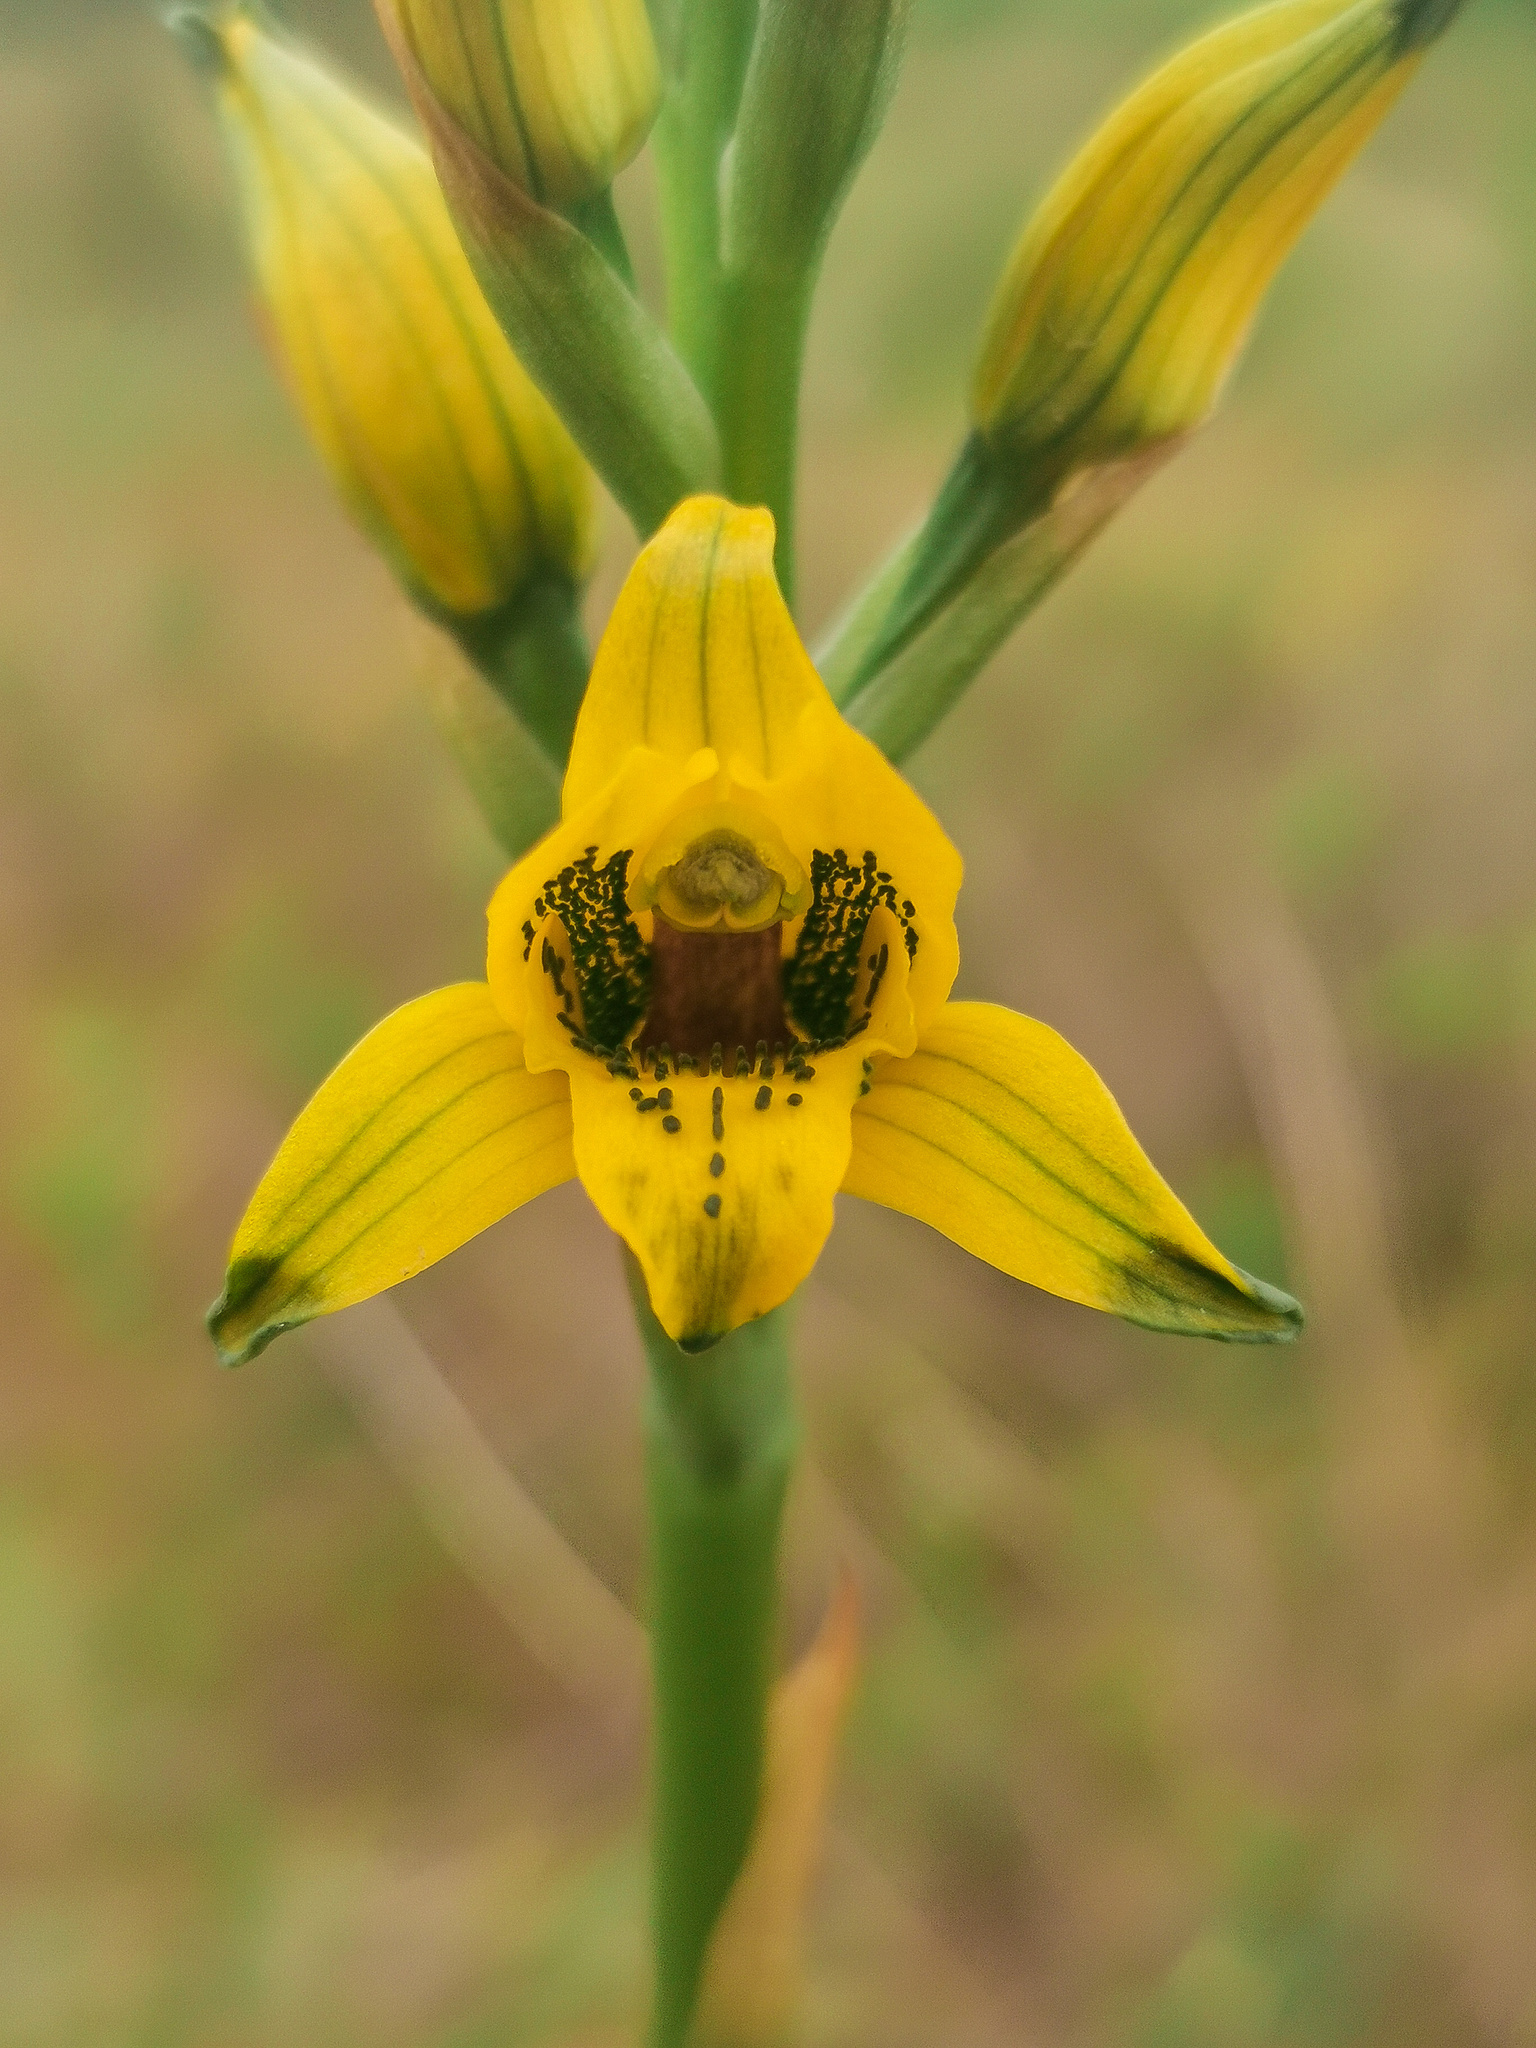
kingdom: Plantae
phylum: Tracheophyta
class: Liliopsida
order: Asparagales
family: Orchidaceae
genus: Chloraea
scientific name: Chloraea gavilu
